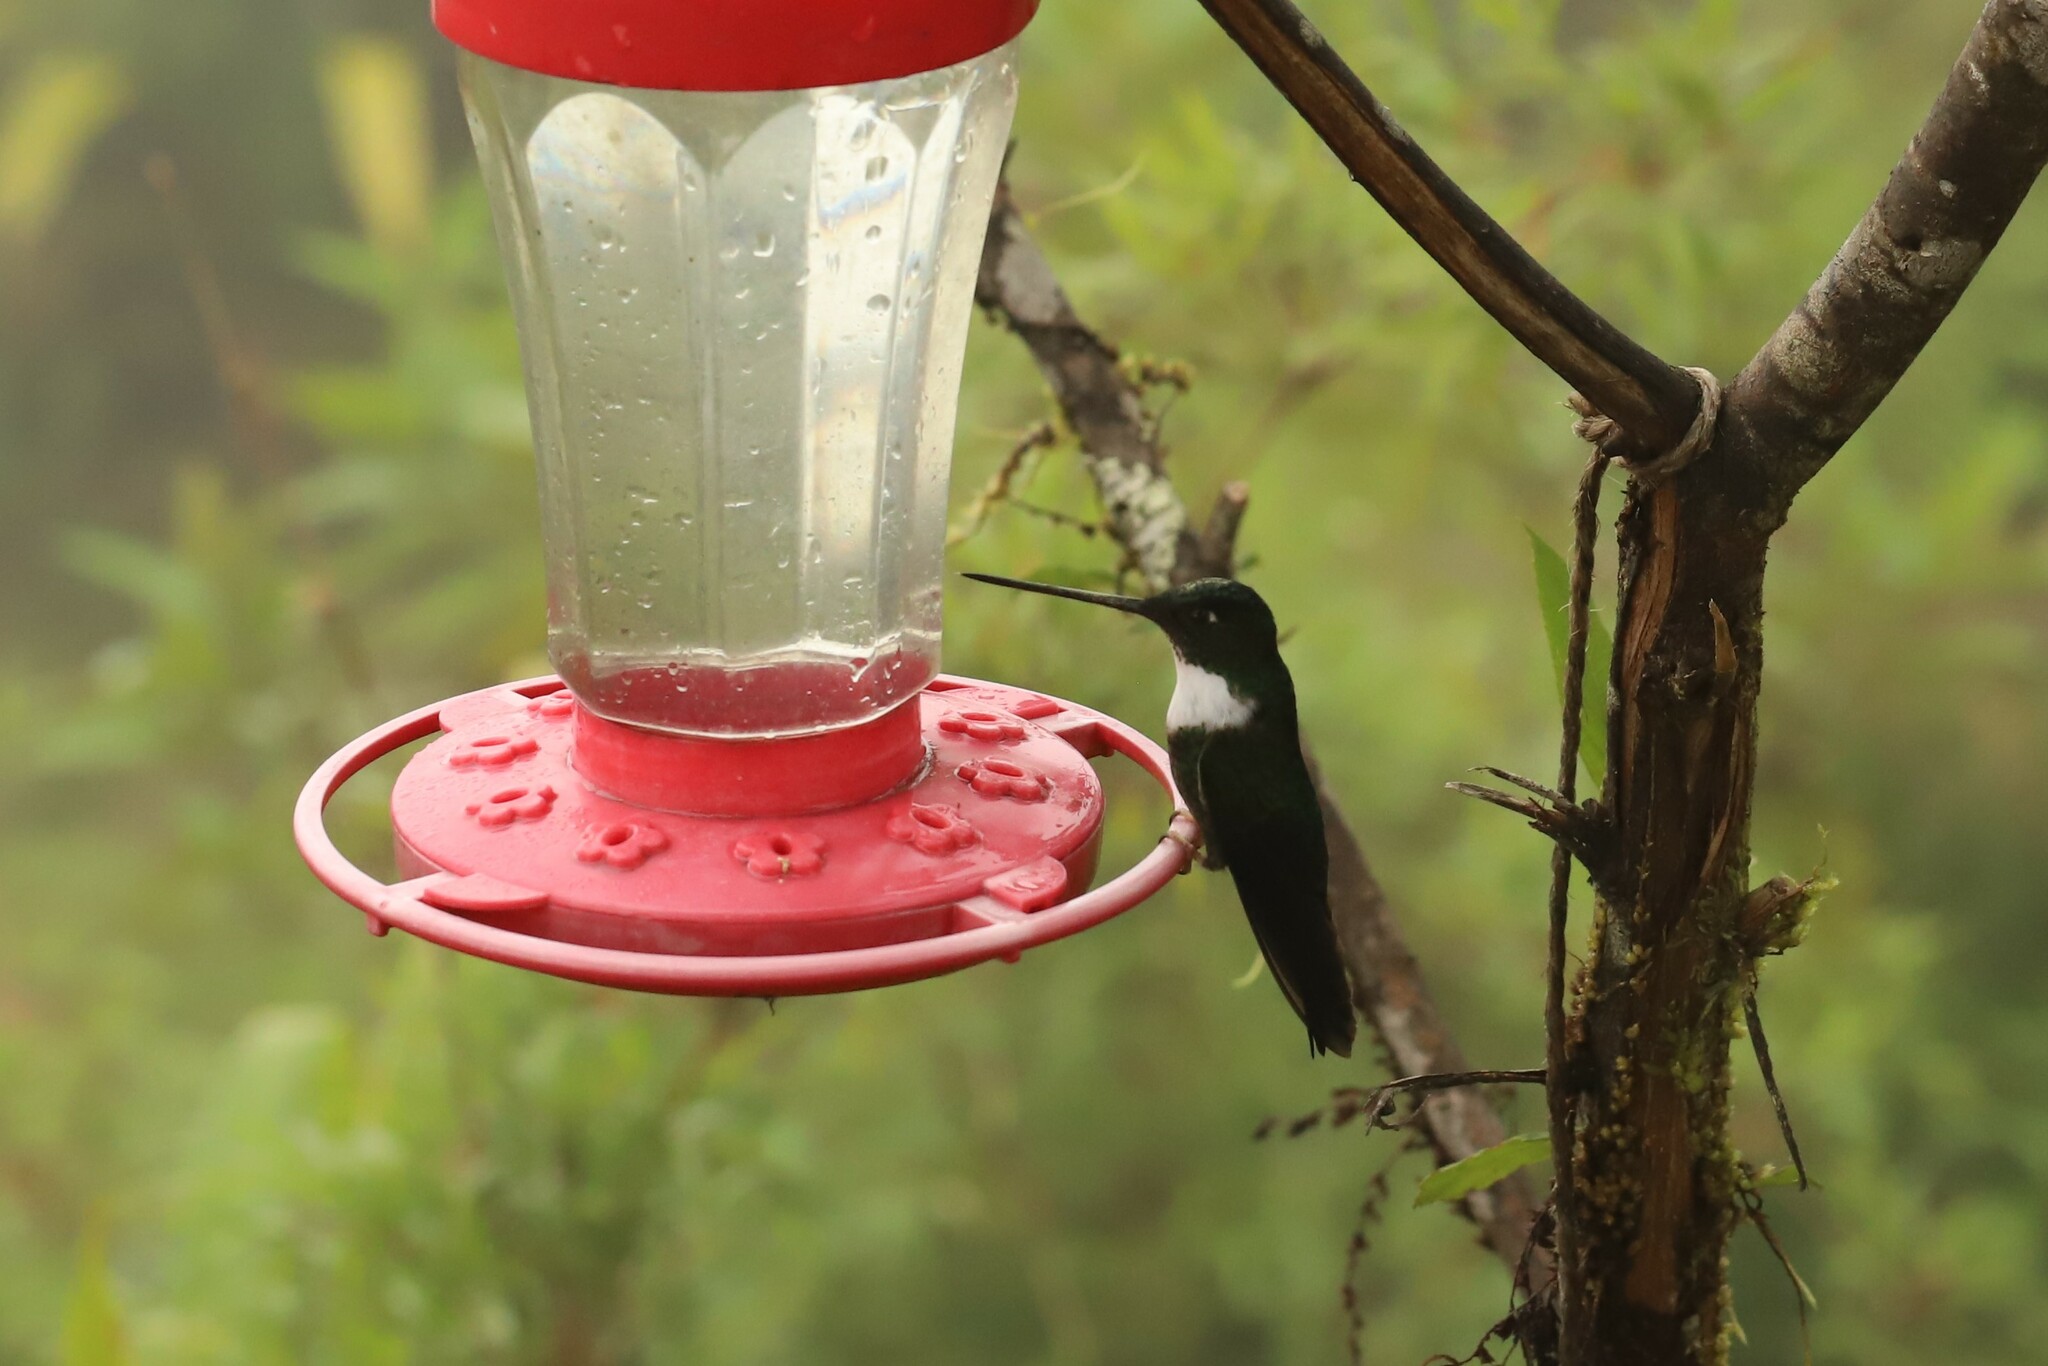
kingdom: Animalia
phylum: Chordata
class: Aves
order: Apodiformes
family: Trochilidae
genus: Coeligena
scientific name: Coeligena torquata
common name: Collared inca
